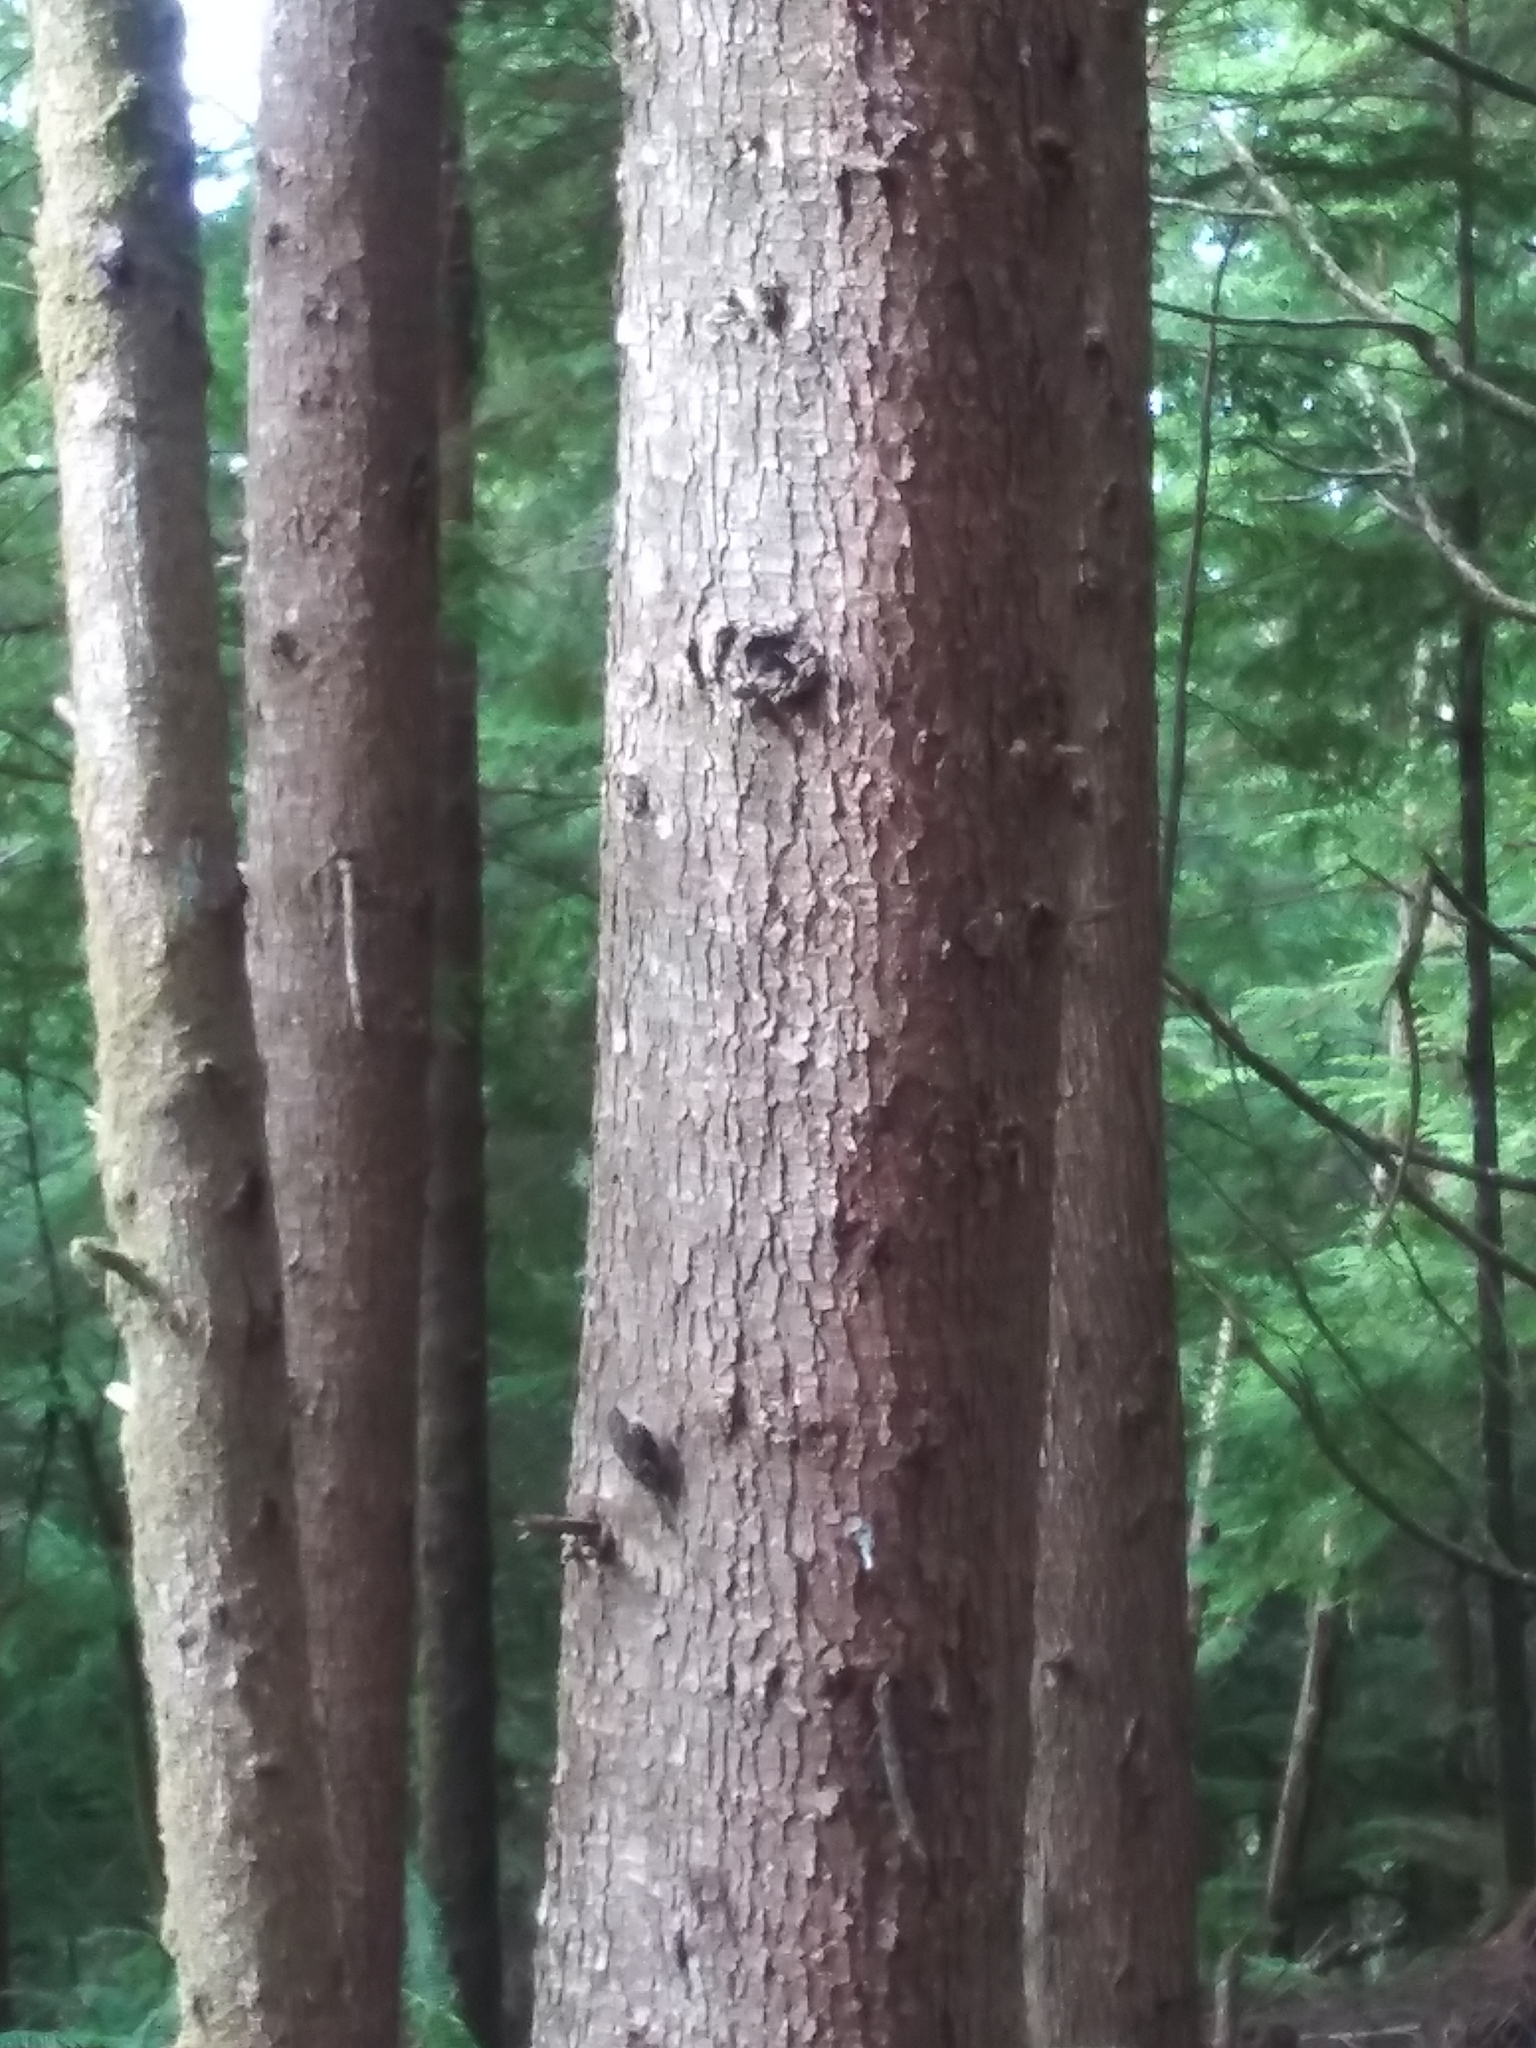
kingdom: Animalia
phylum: Chordata
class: Aves
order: Passeriformes
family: Certhiidae
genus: Certhia
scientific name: Certhia americana
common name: Brown creeper
